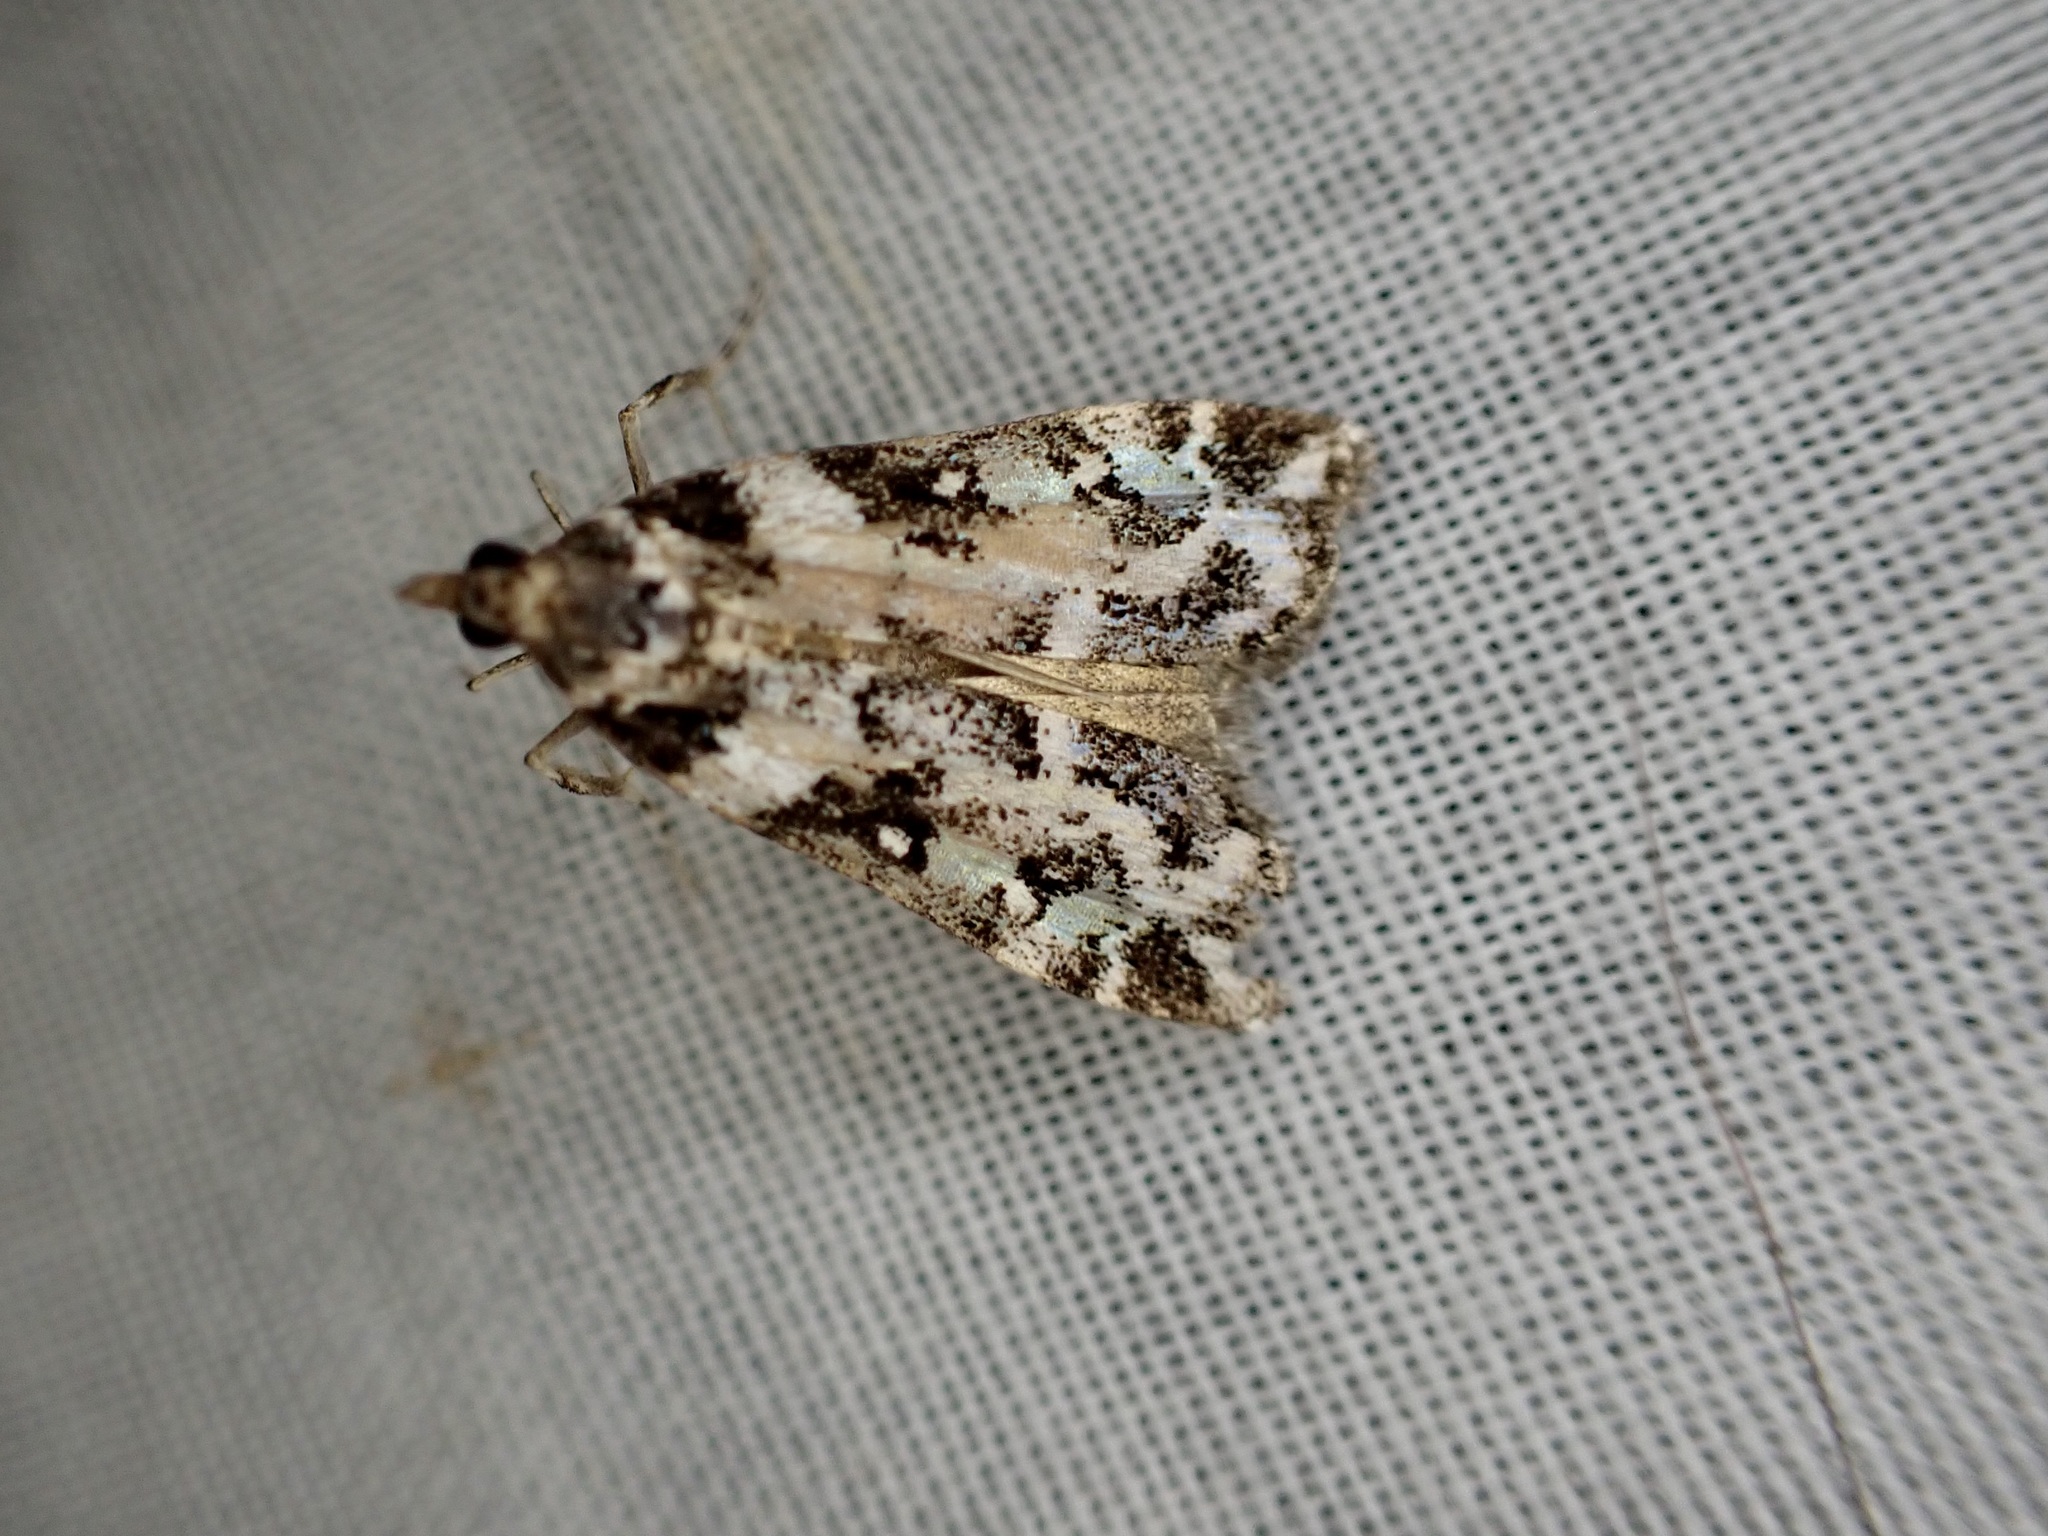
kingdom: Animalia
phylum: Arthropoda
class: Insecta
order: Lepidoptera
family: Crambidae
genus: Eudonia
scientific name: Eudonia diphtheralis
